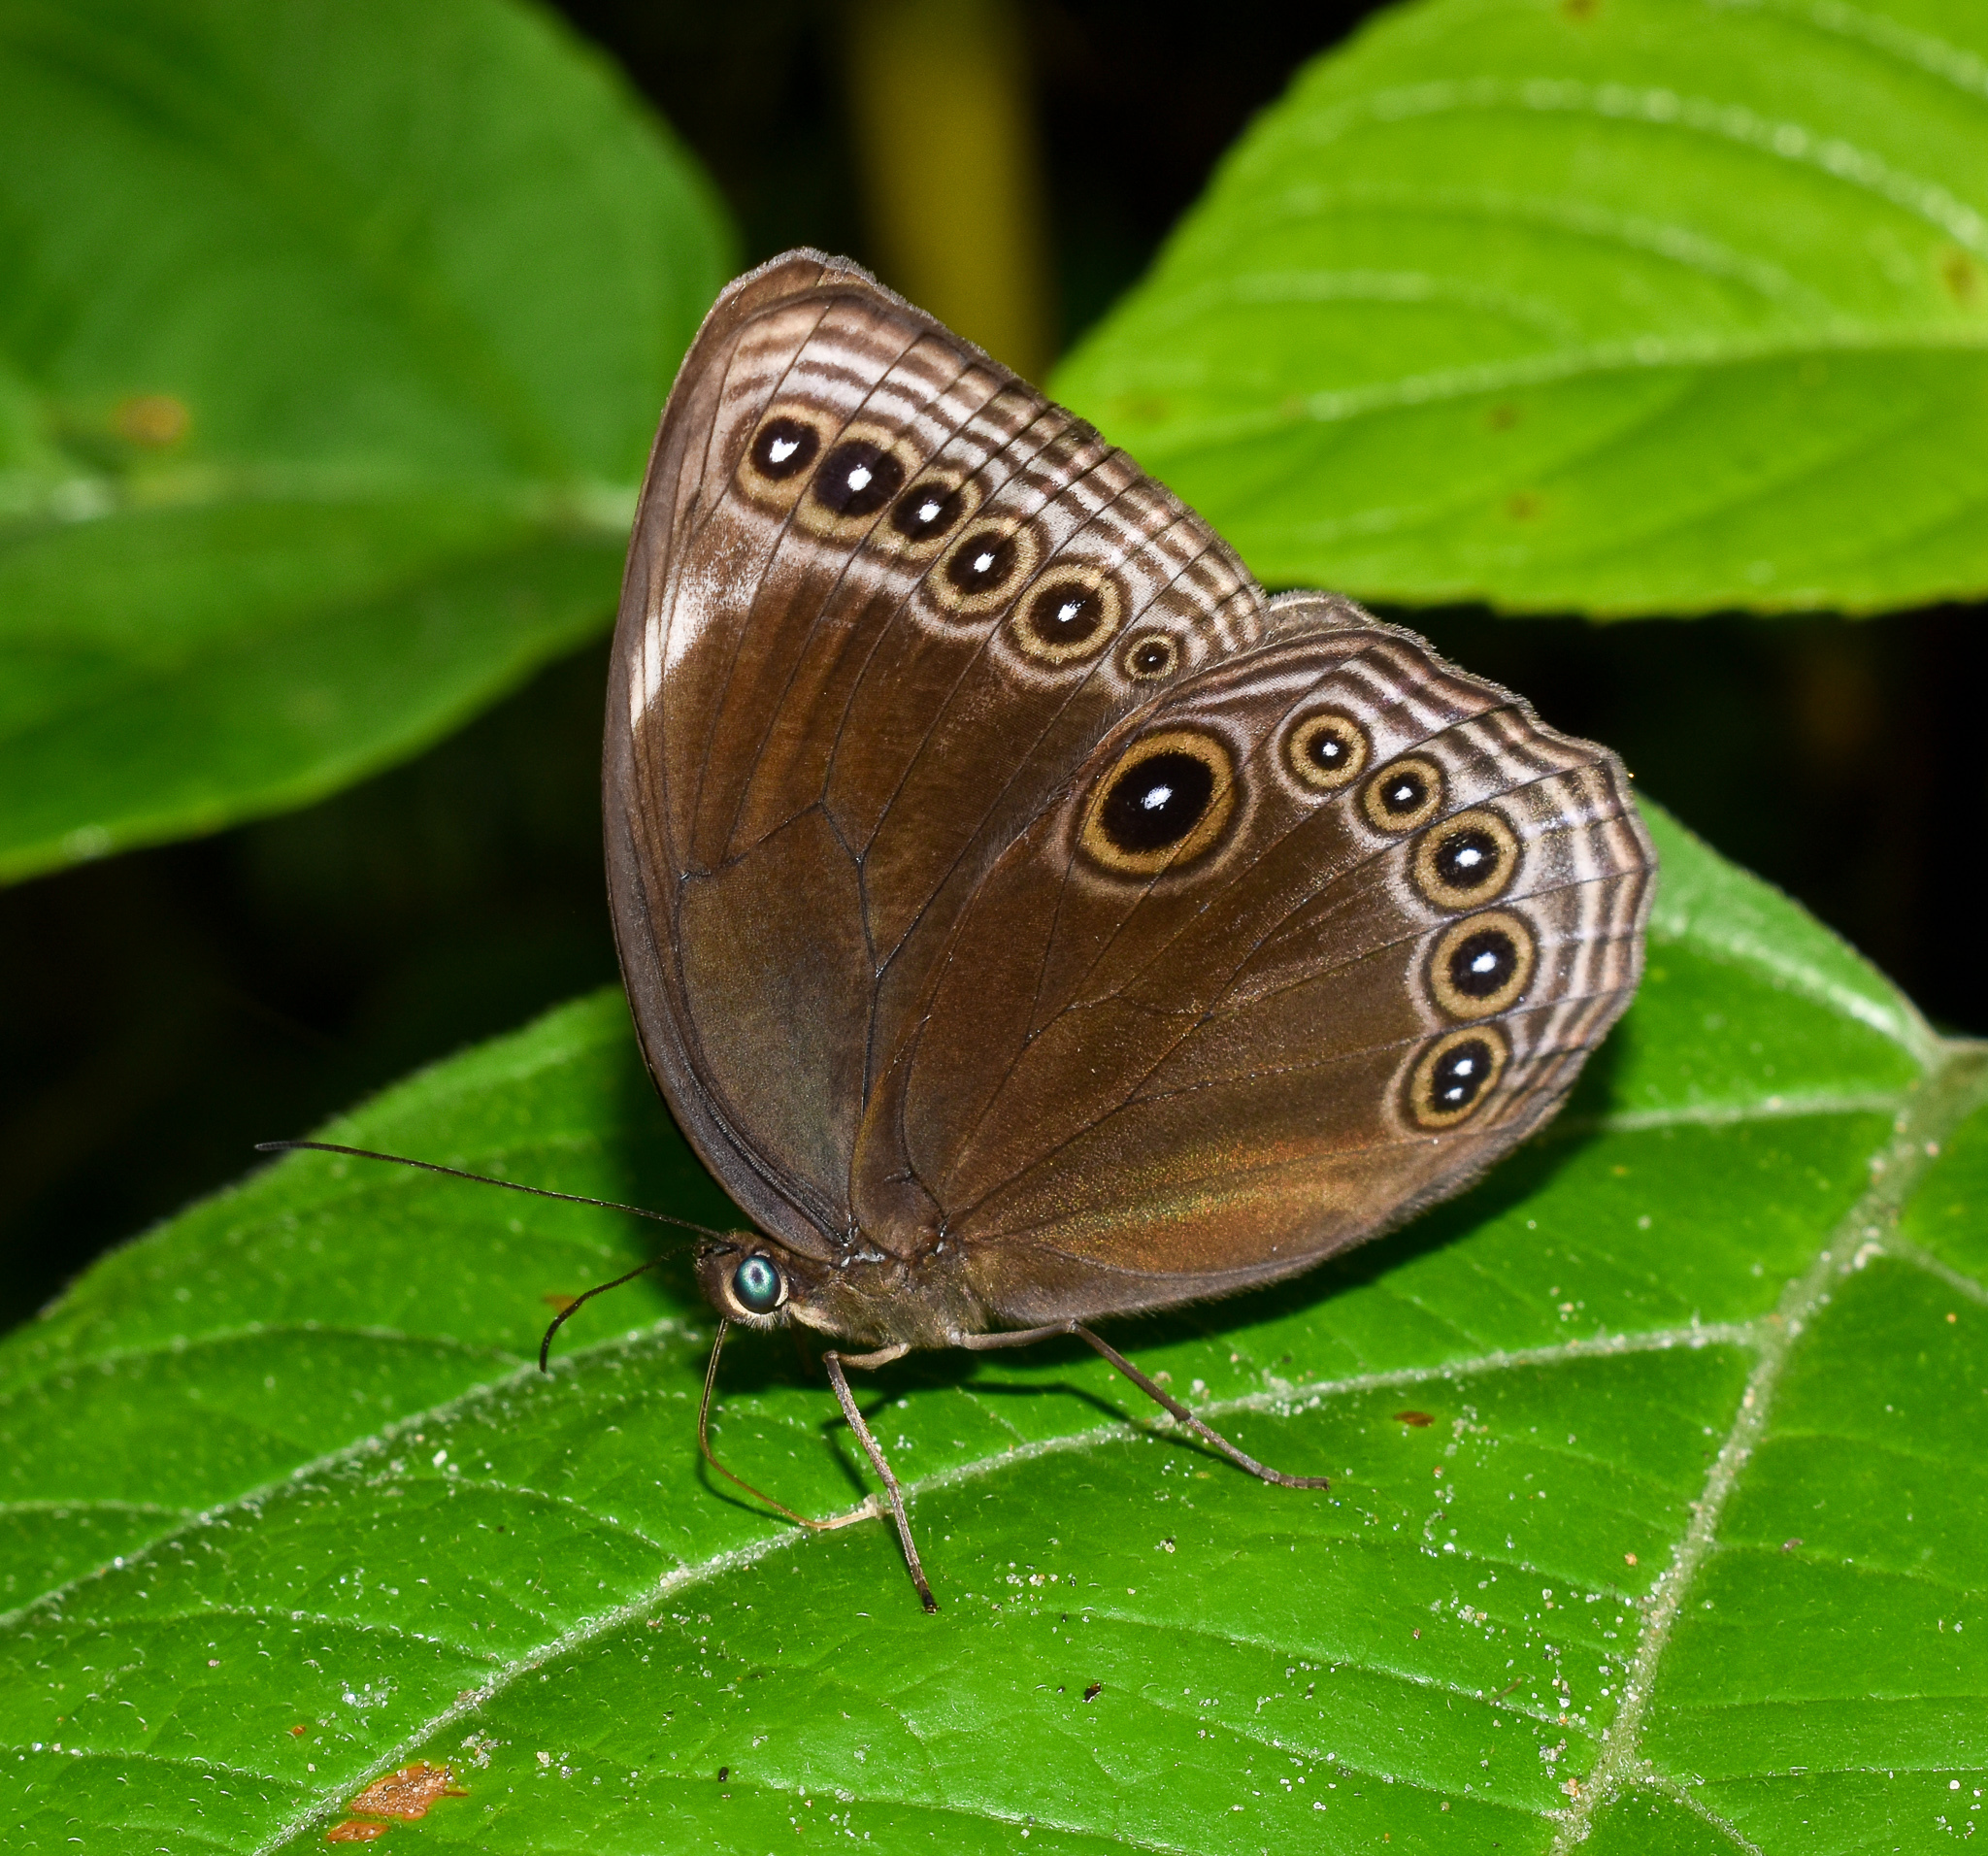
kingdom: Animalia
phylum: Arthropoda
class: Insecta
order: Lepidoptera
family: Nymphalidae
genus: Ethope
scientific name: Ethope himachala
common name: Dusky diadem
